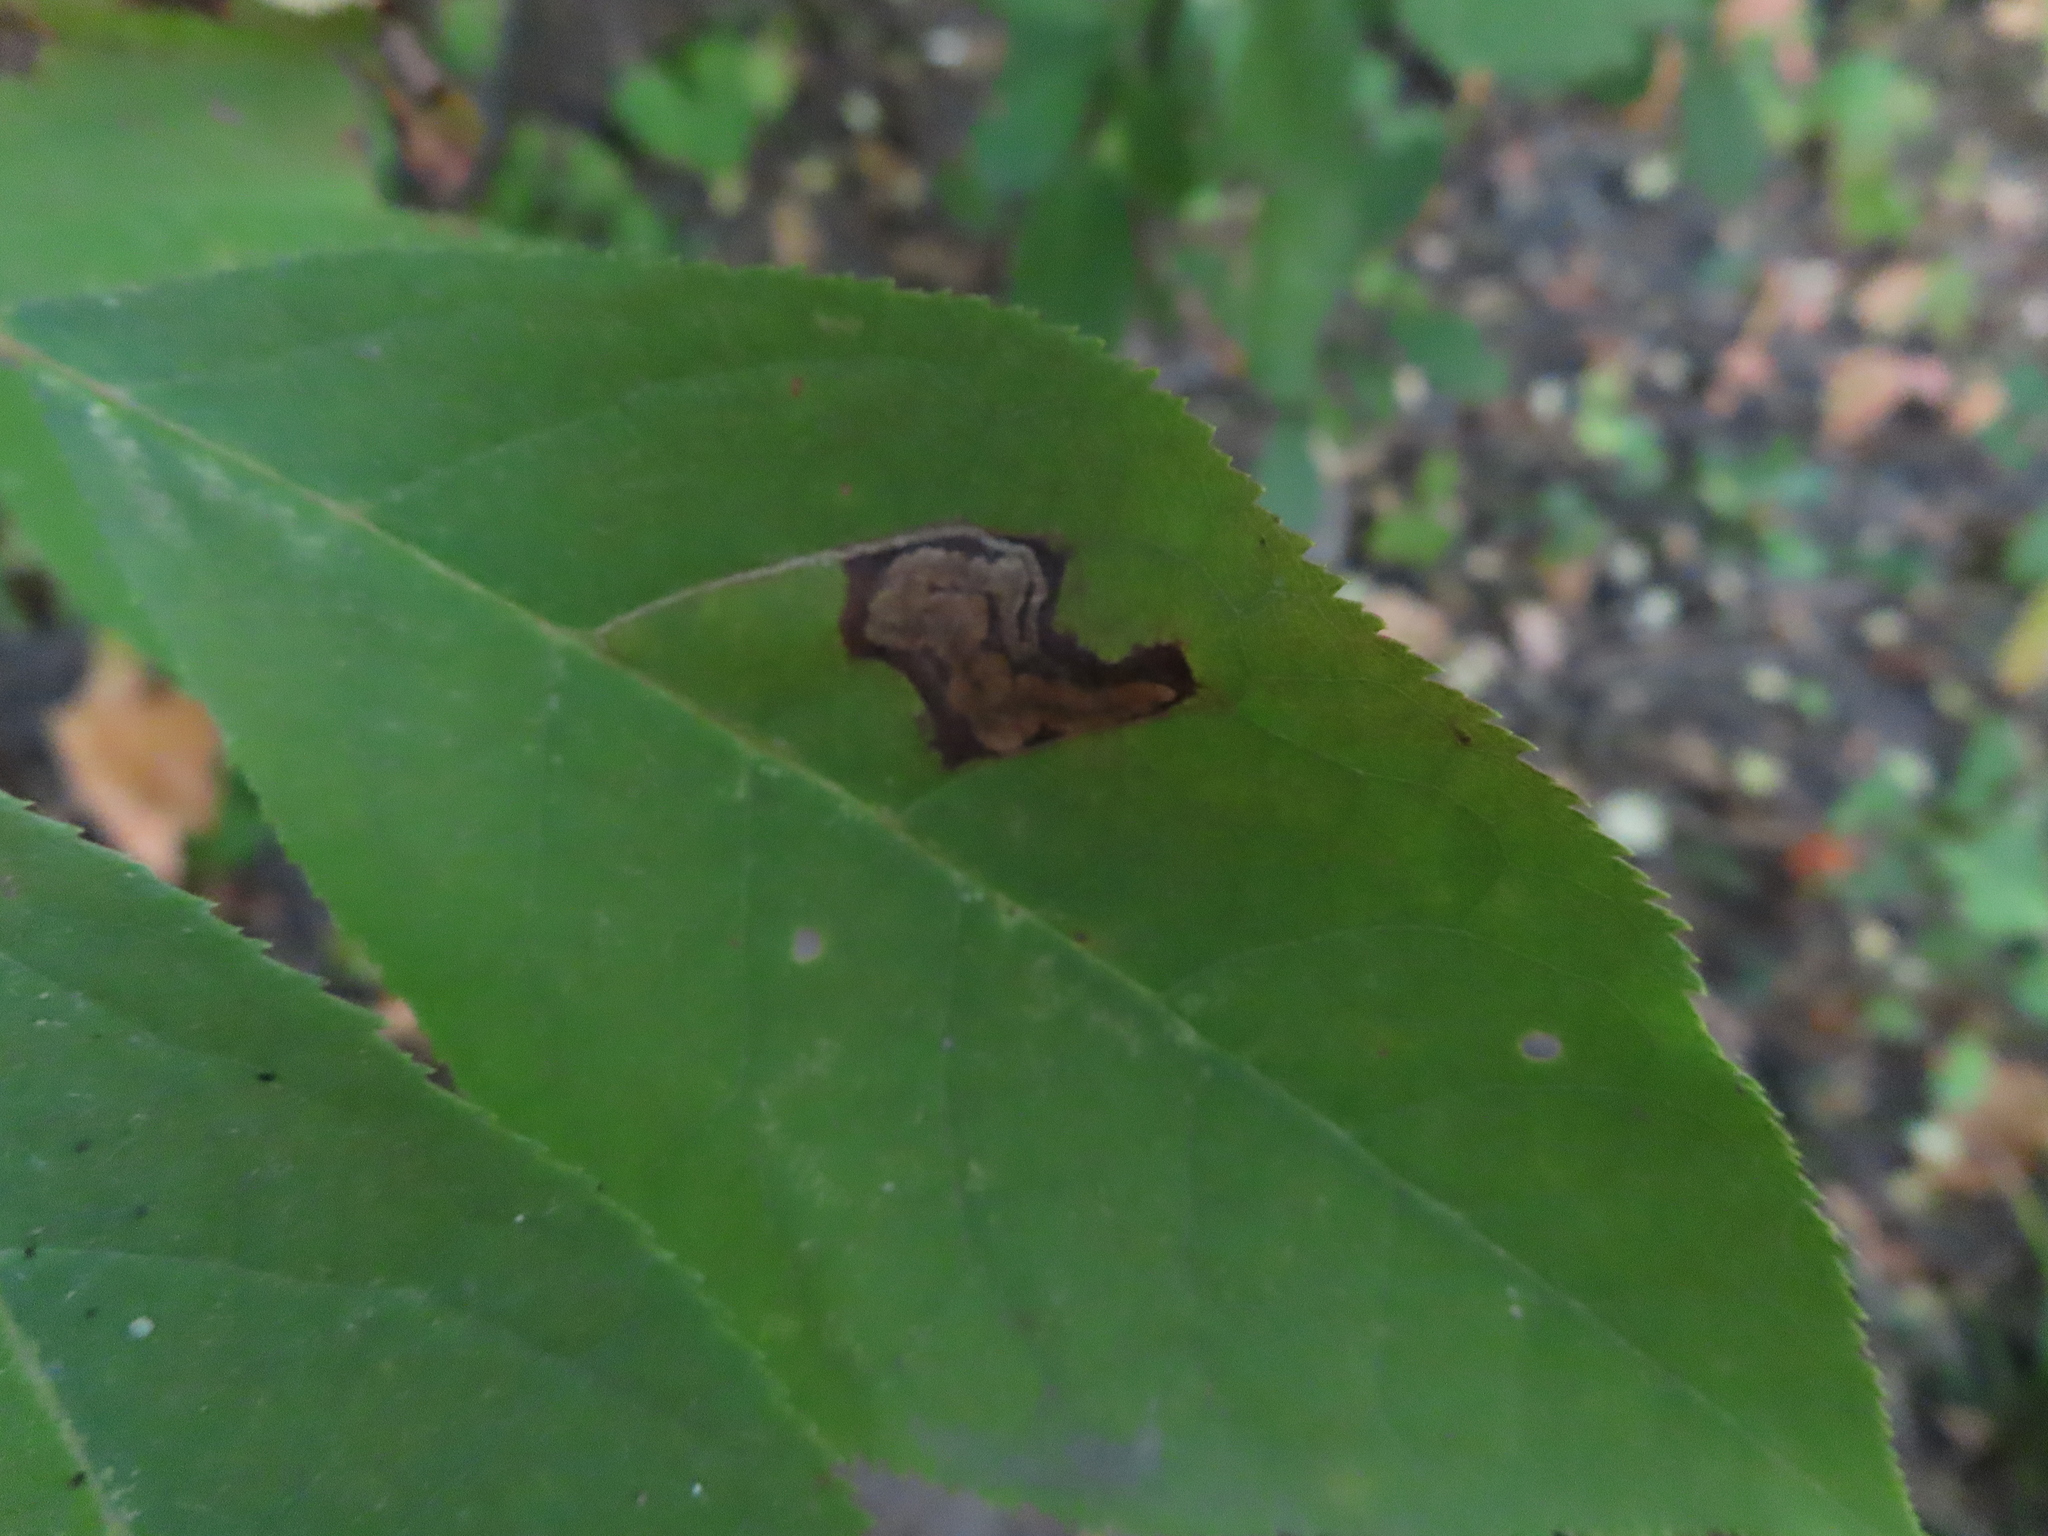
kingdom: Animalia
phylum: Arthropoda
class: Insecta
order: Lepidoptera
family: Nepticulidae
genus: Stigmella
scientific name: Stigmella prunifoliella
